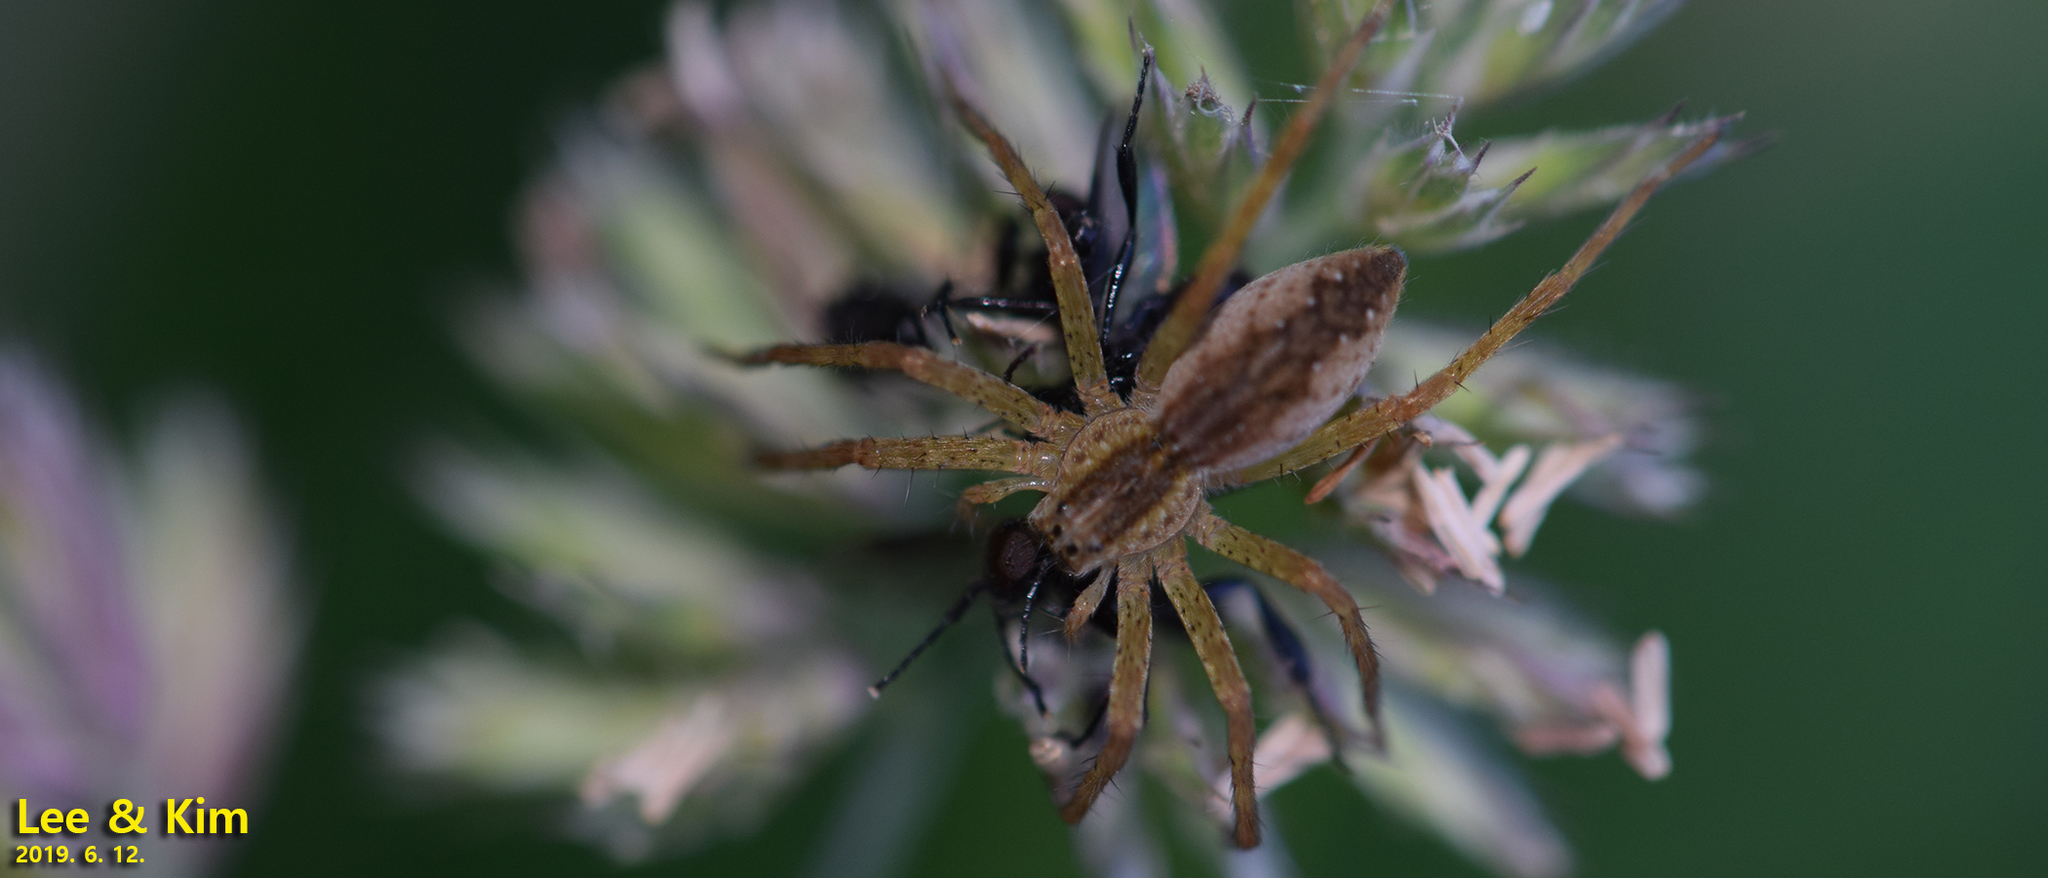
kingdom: Animalia
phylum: Arthropoda
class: Arachnida
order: Araneae
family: Pisauridae
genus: Dolomedes
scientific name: Dolomedes sulfureus
